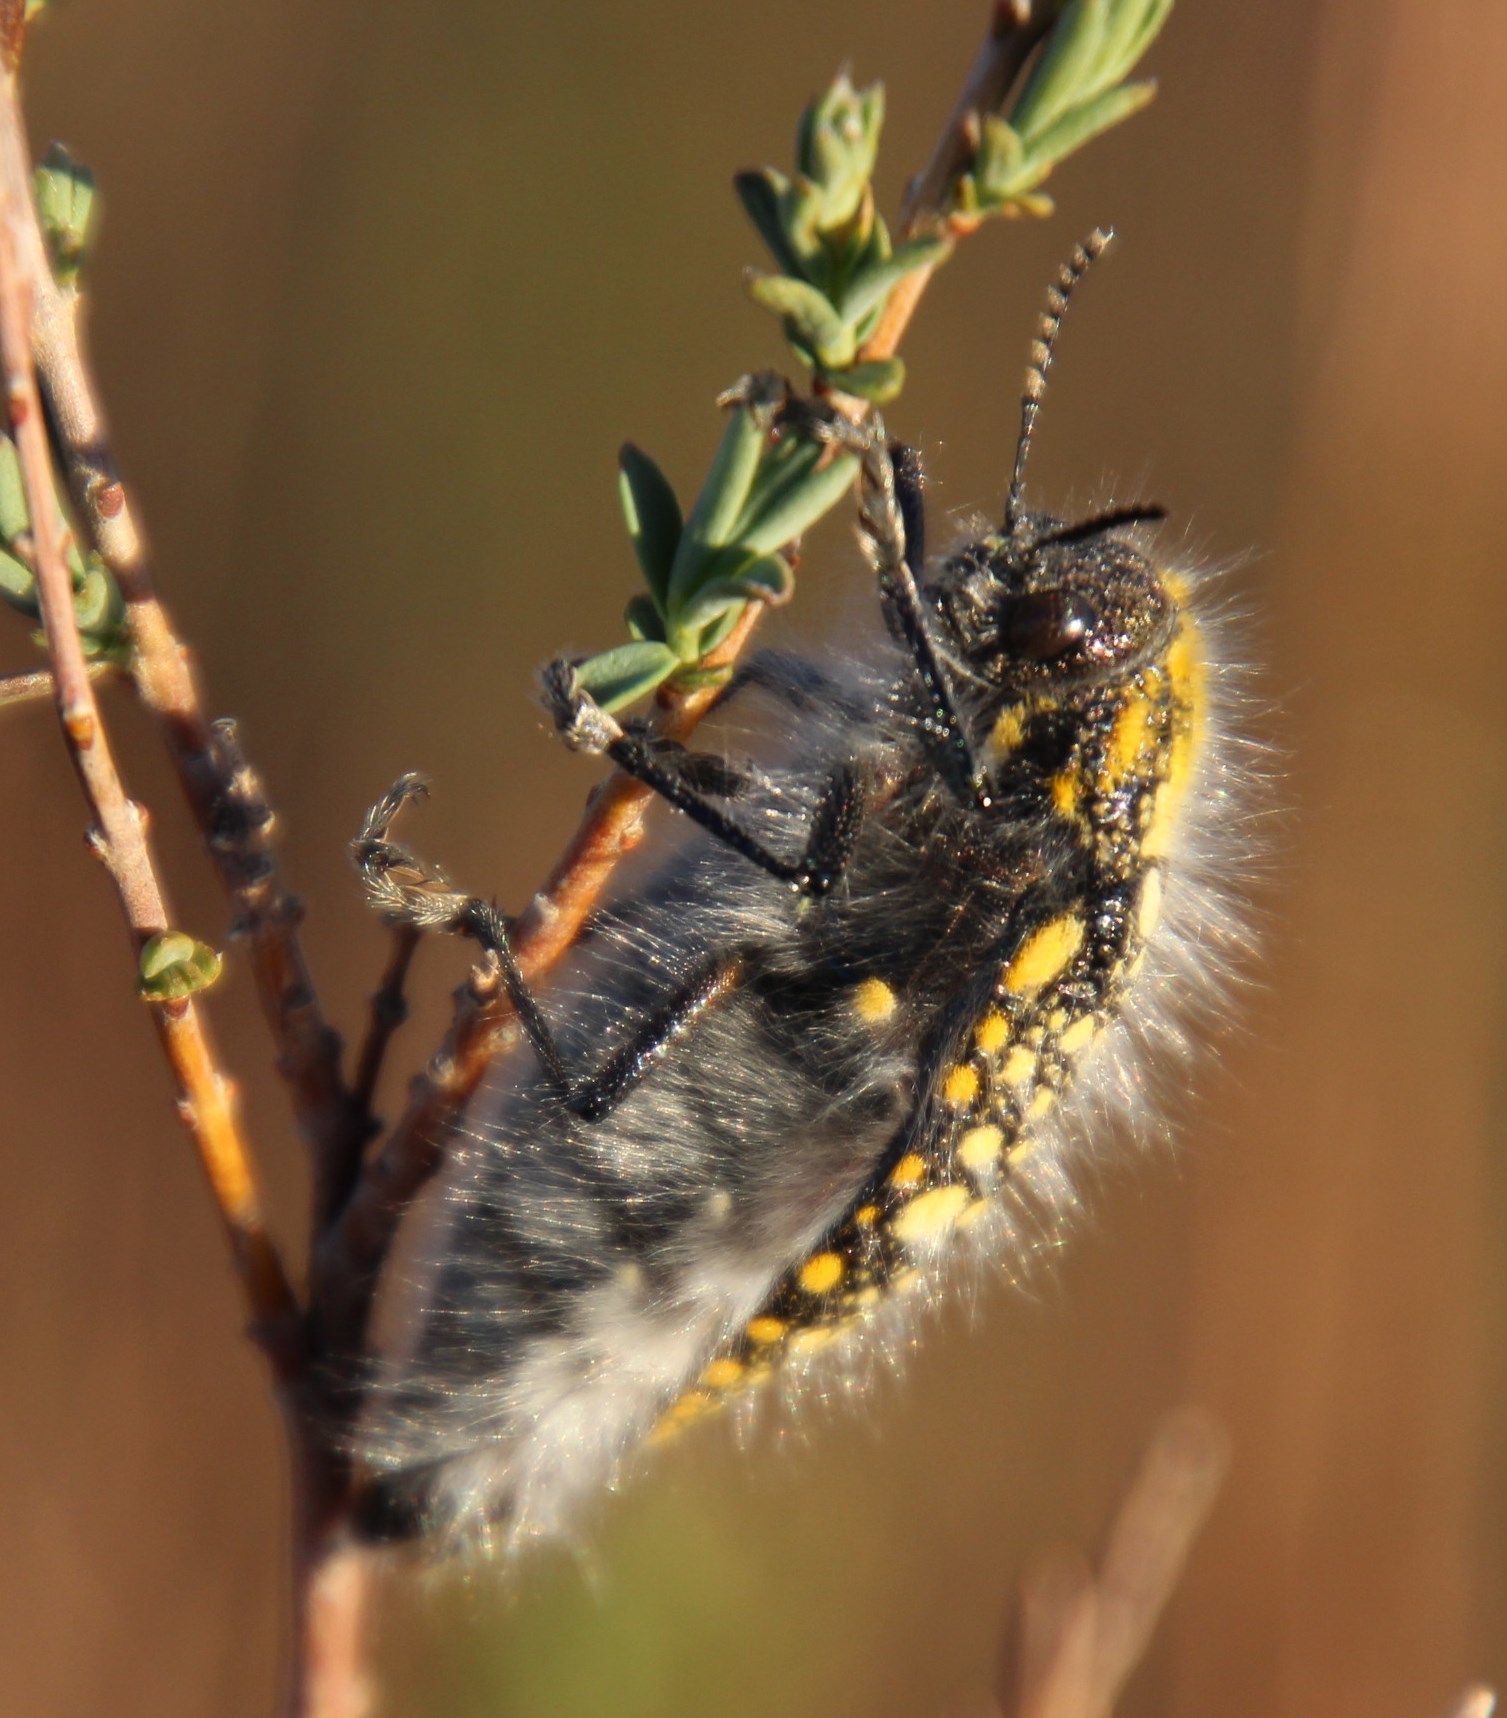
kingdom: Animalia
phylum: Arthropoda
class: Insecta
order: Coleoptera
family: Buprestidae
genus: Julodis
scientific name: Julodis cirrosa
